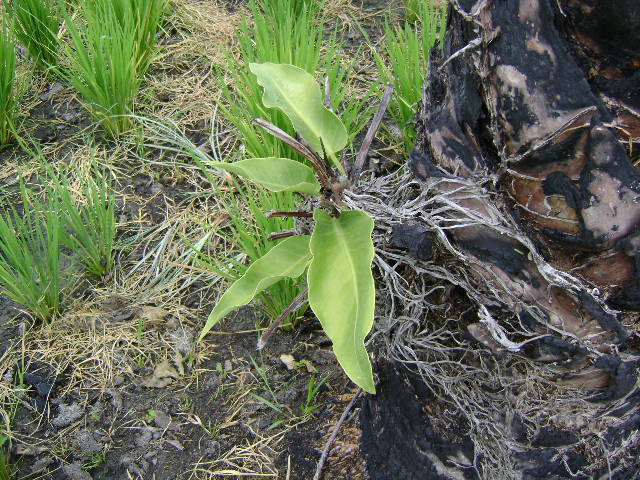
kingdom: Plantae
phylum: Tracheophyta
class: Liliopsida
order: Alismatales
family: Araceae
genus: Anthurium
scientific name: Anthurium schlechtendalii
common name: Laceleaf
